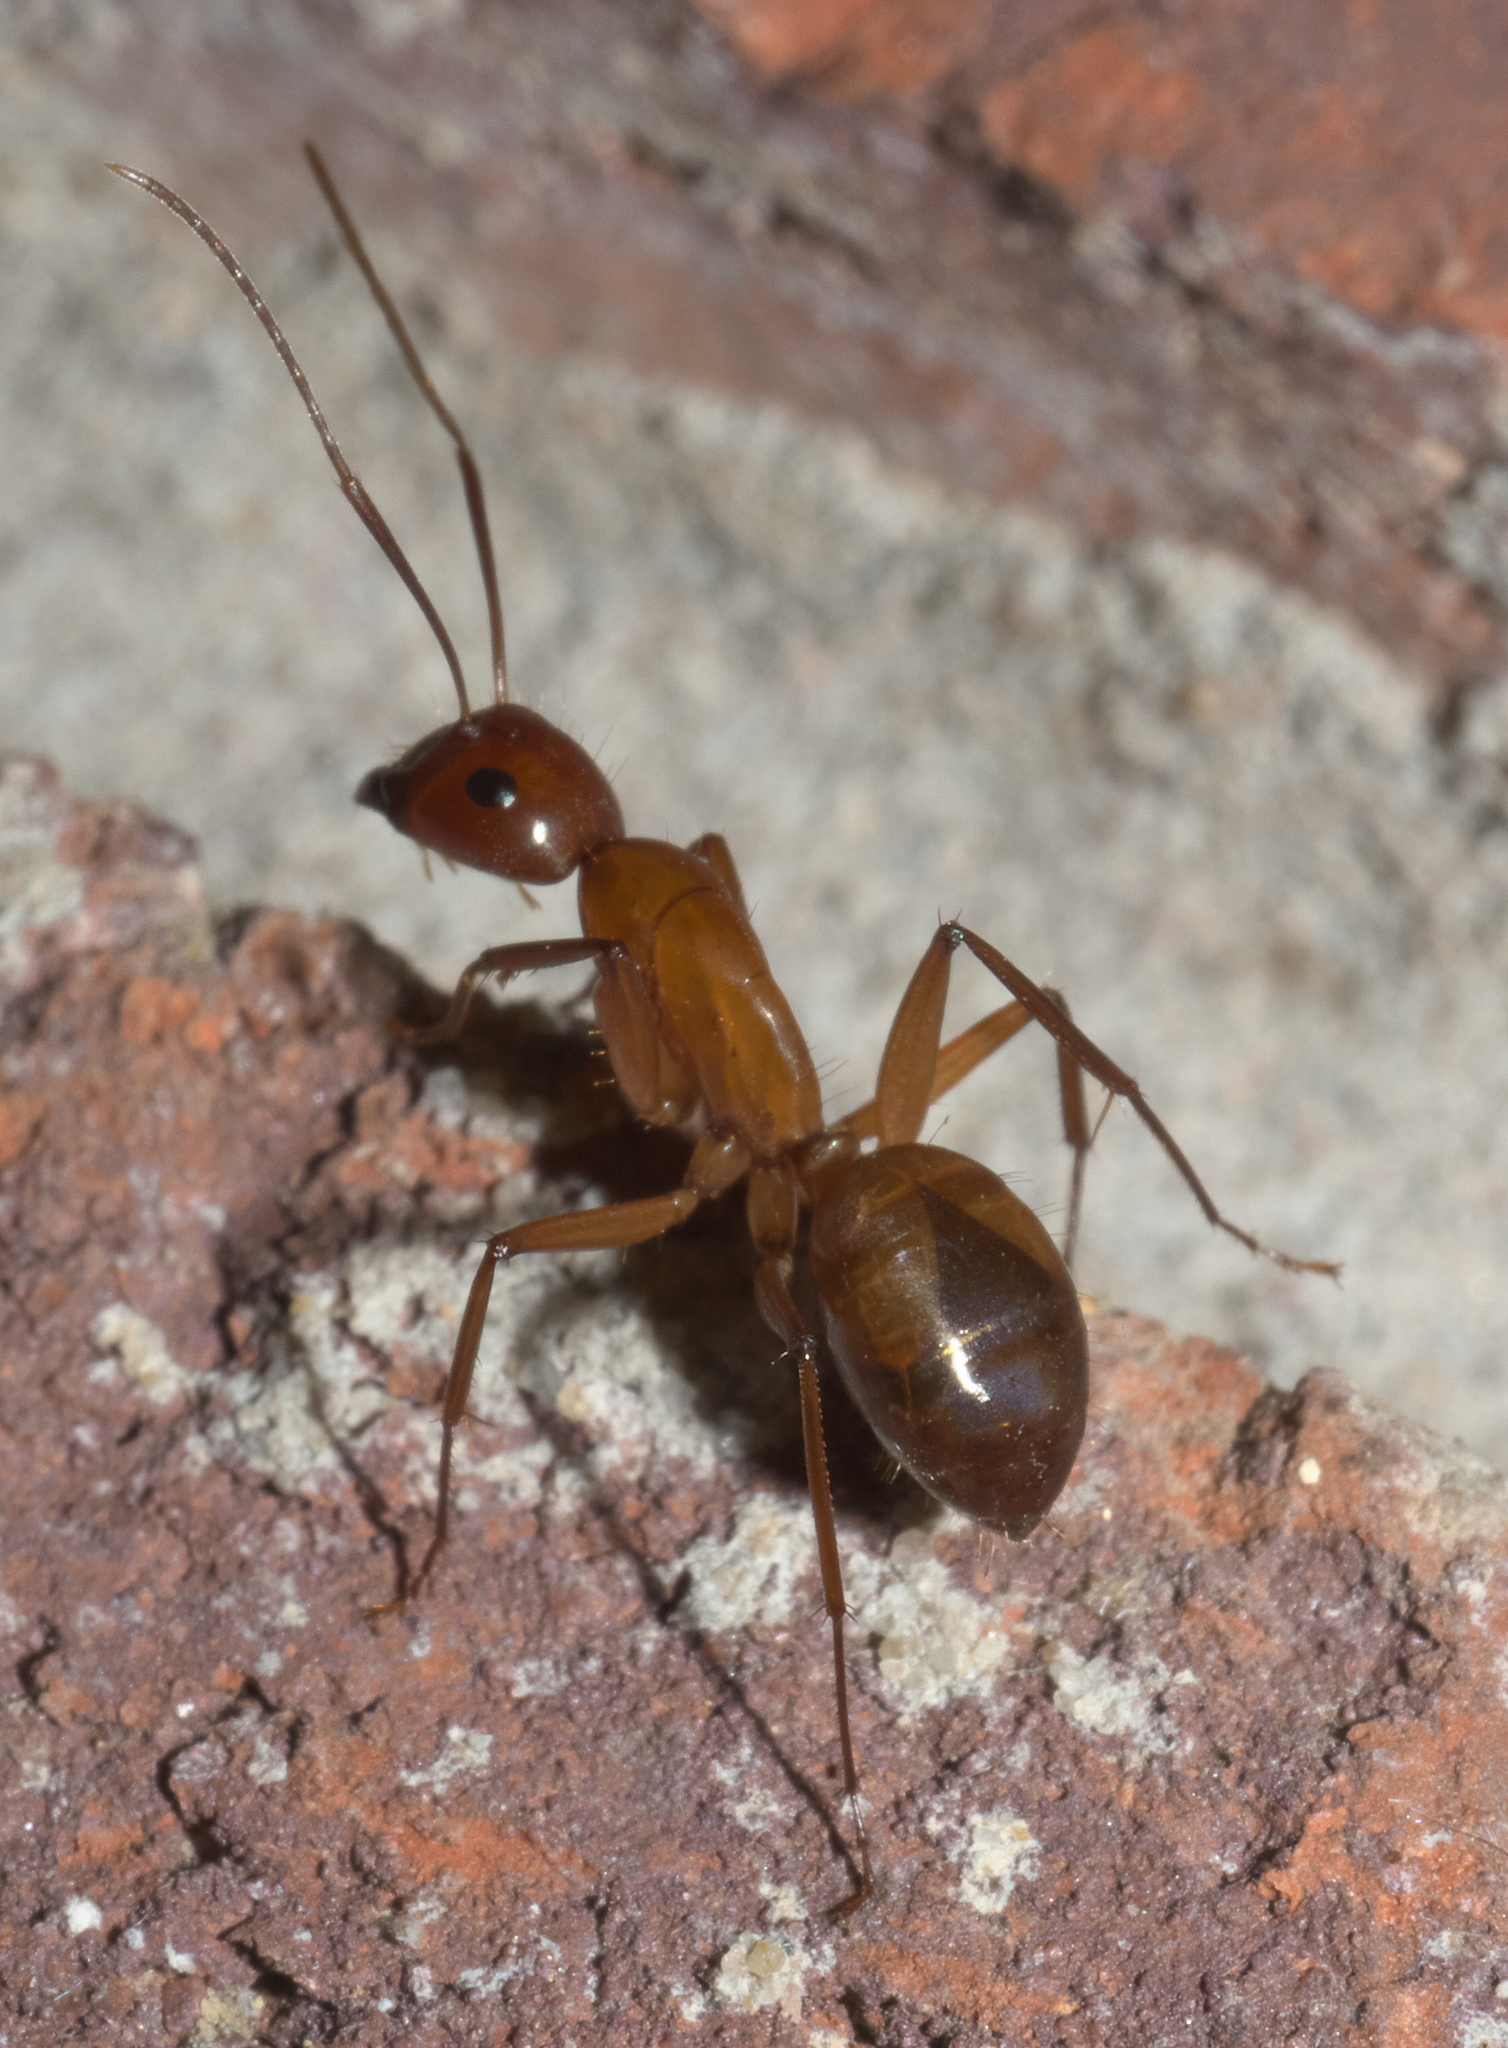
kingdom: Animalia
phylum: Arthropoda
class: Insecta
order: Hymenoptera
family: Formicidae
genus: Camponotus
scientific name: Camponotus castaneus
